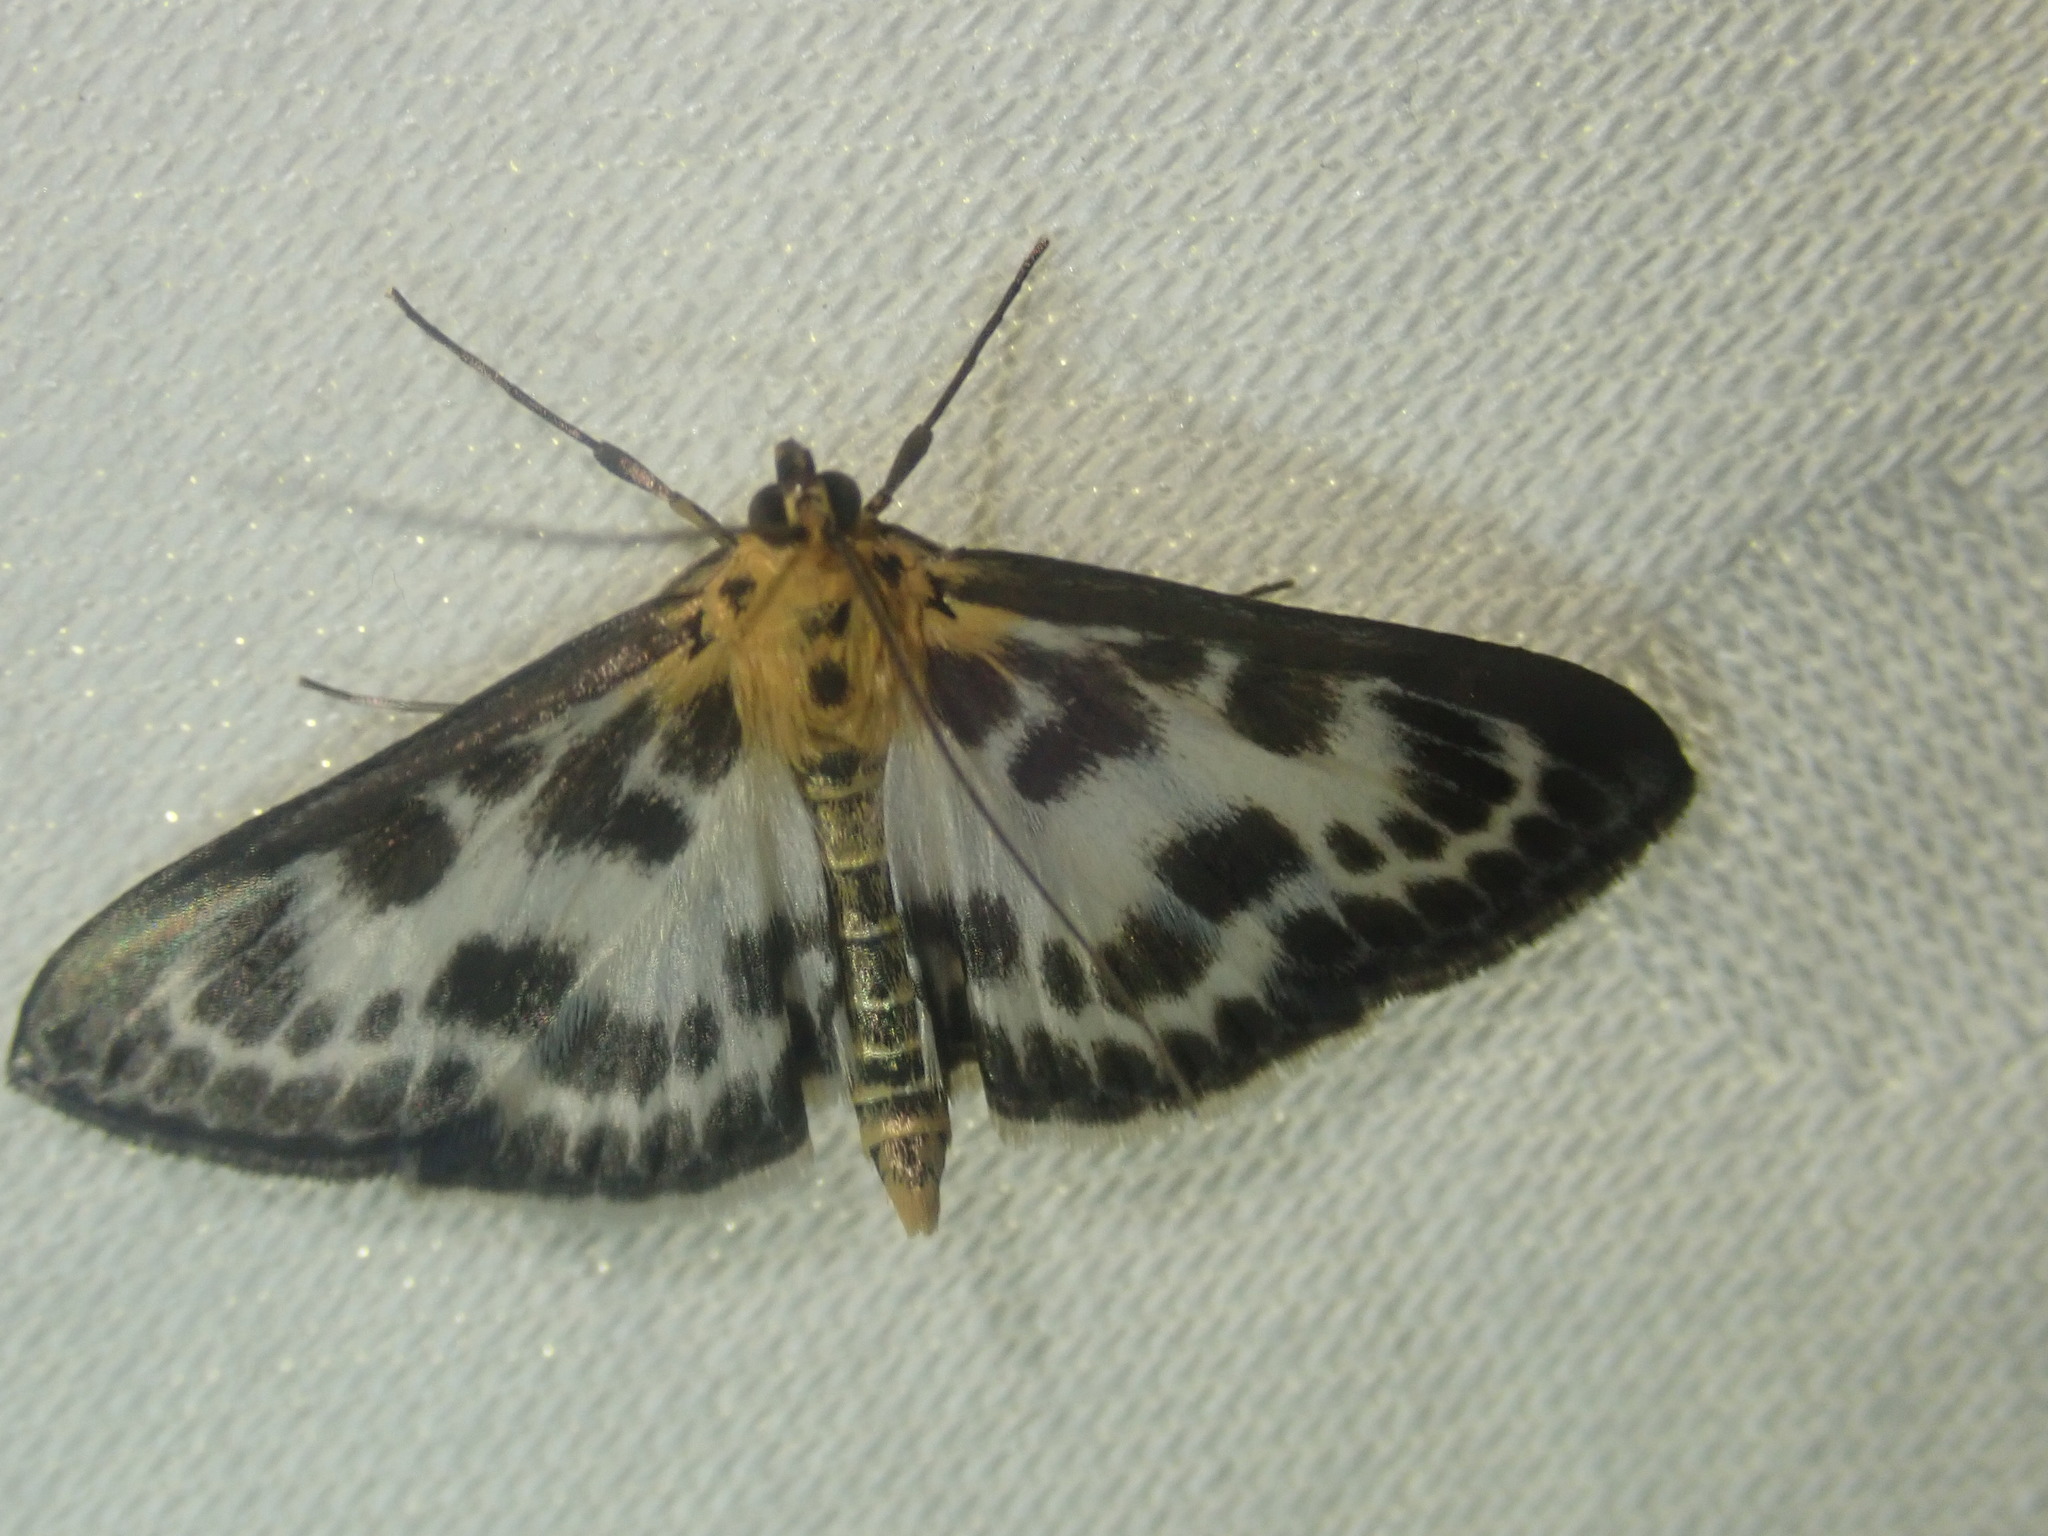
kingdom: Animalia
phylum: Arthropoda
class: Insecta
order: Lepidoptera
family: Crambidae
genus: Anania
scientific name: Anania hortulata
